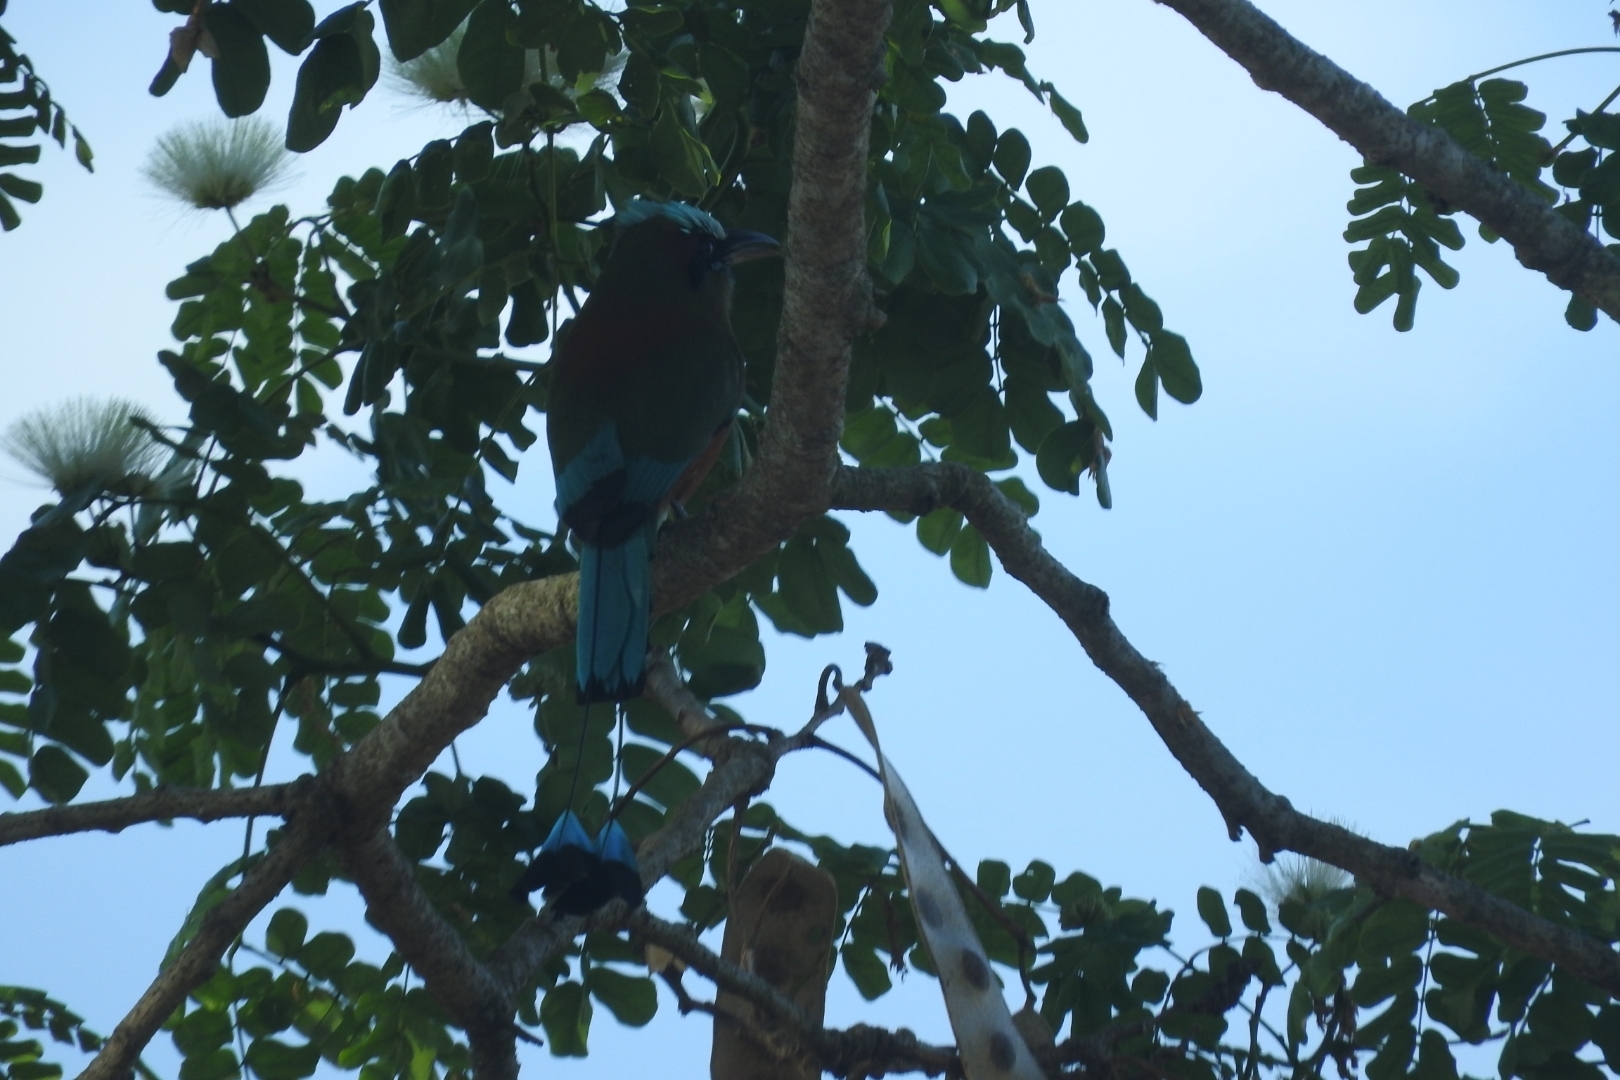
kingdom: Animalia
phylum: Chordata
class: Aves
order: Coraciiformes
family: Momotidae
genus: Eumomota
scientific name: Eumomota superciliosa
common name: Turquoise-browed motmot
